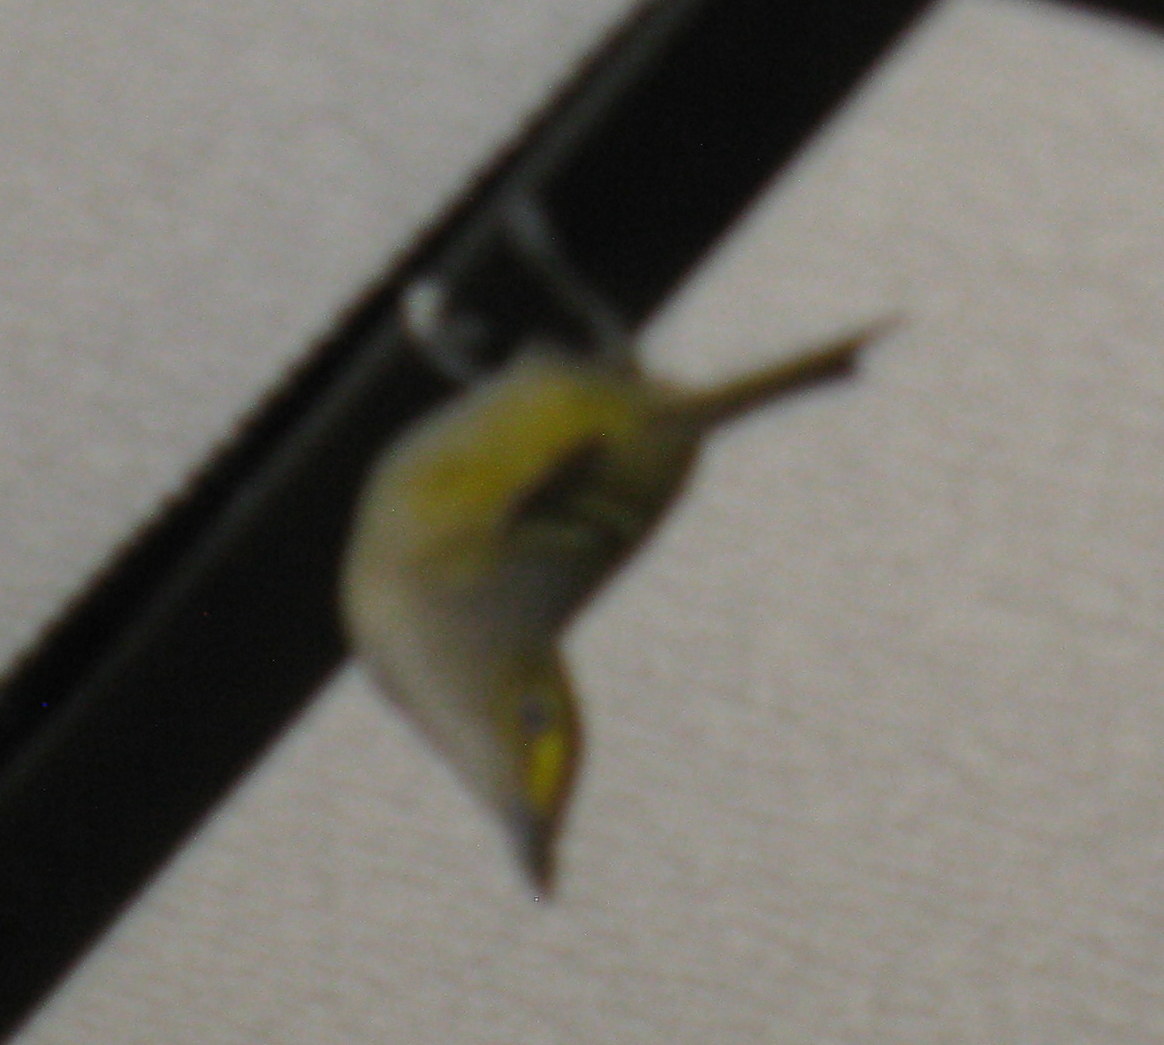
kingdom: Animalia
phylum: Chordata
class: Aves
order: Passeriformes
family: Vireonidae
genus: Vireo
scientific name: Vireo griseus
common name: White-eyed vireo
